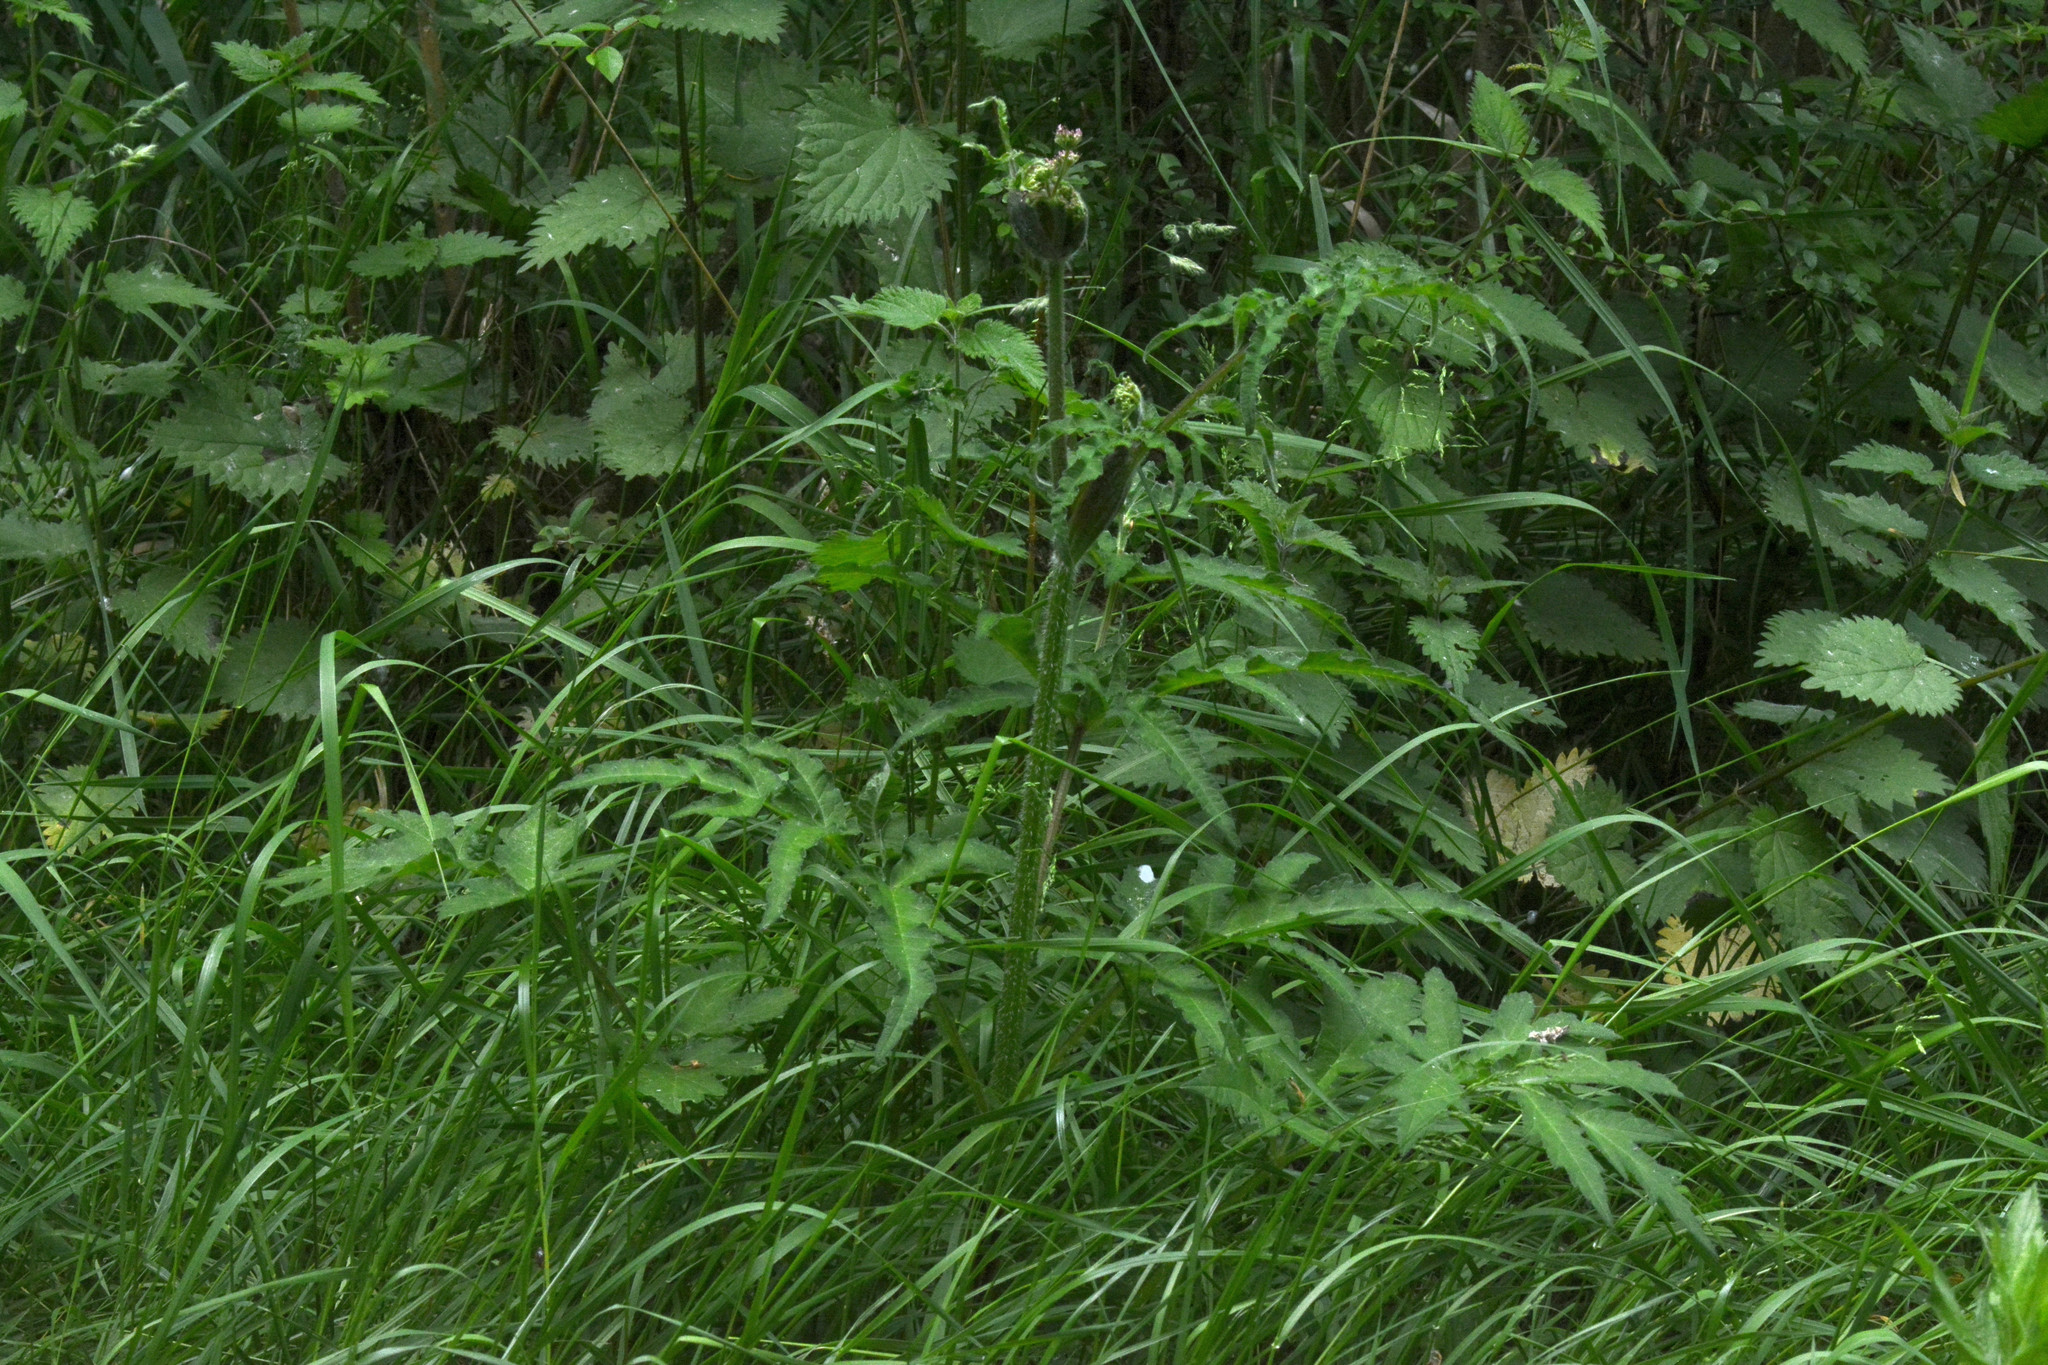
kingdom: Plantae
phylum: Tracheophyta
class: Magnoliopsida
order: Apiales
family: Apiaceae
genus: Heracleum
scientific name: Heracleum sphondylium
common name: Hogweed
